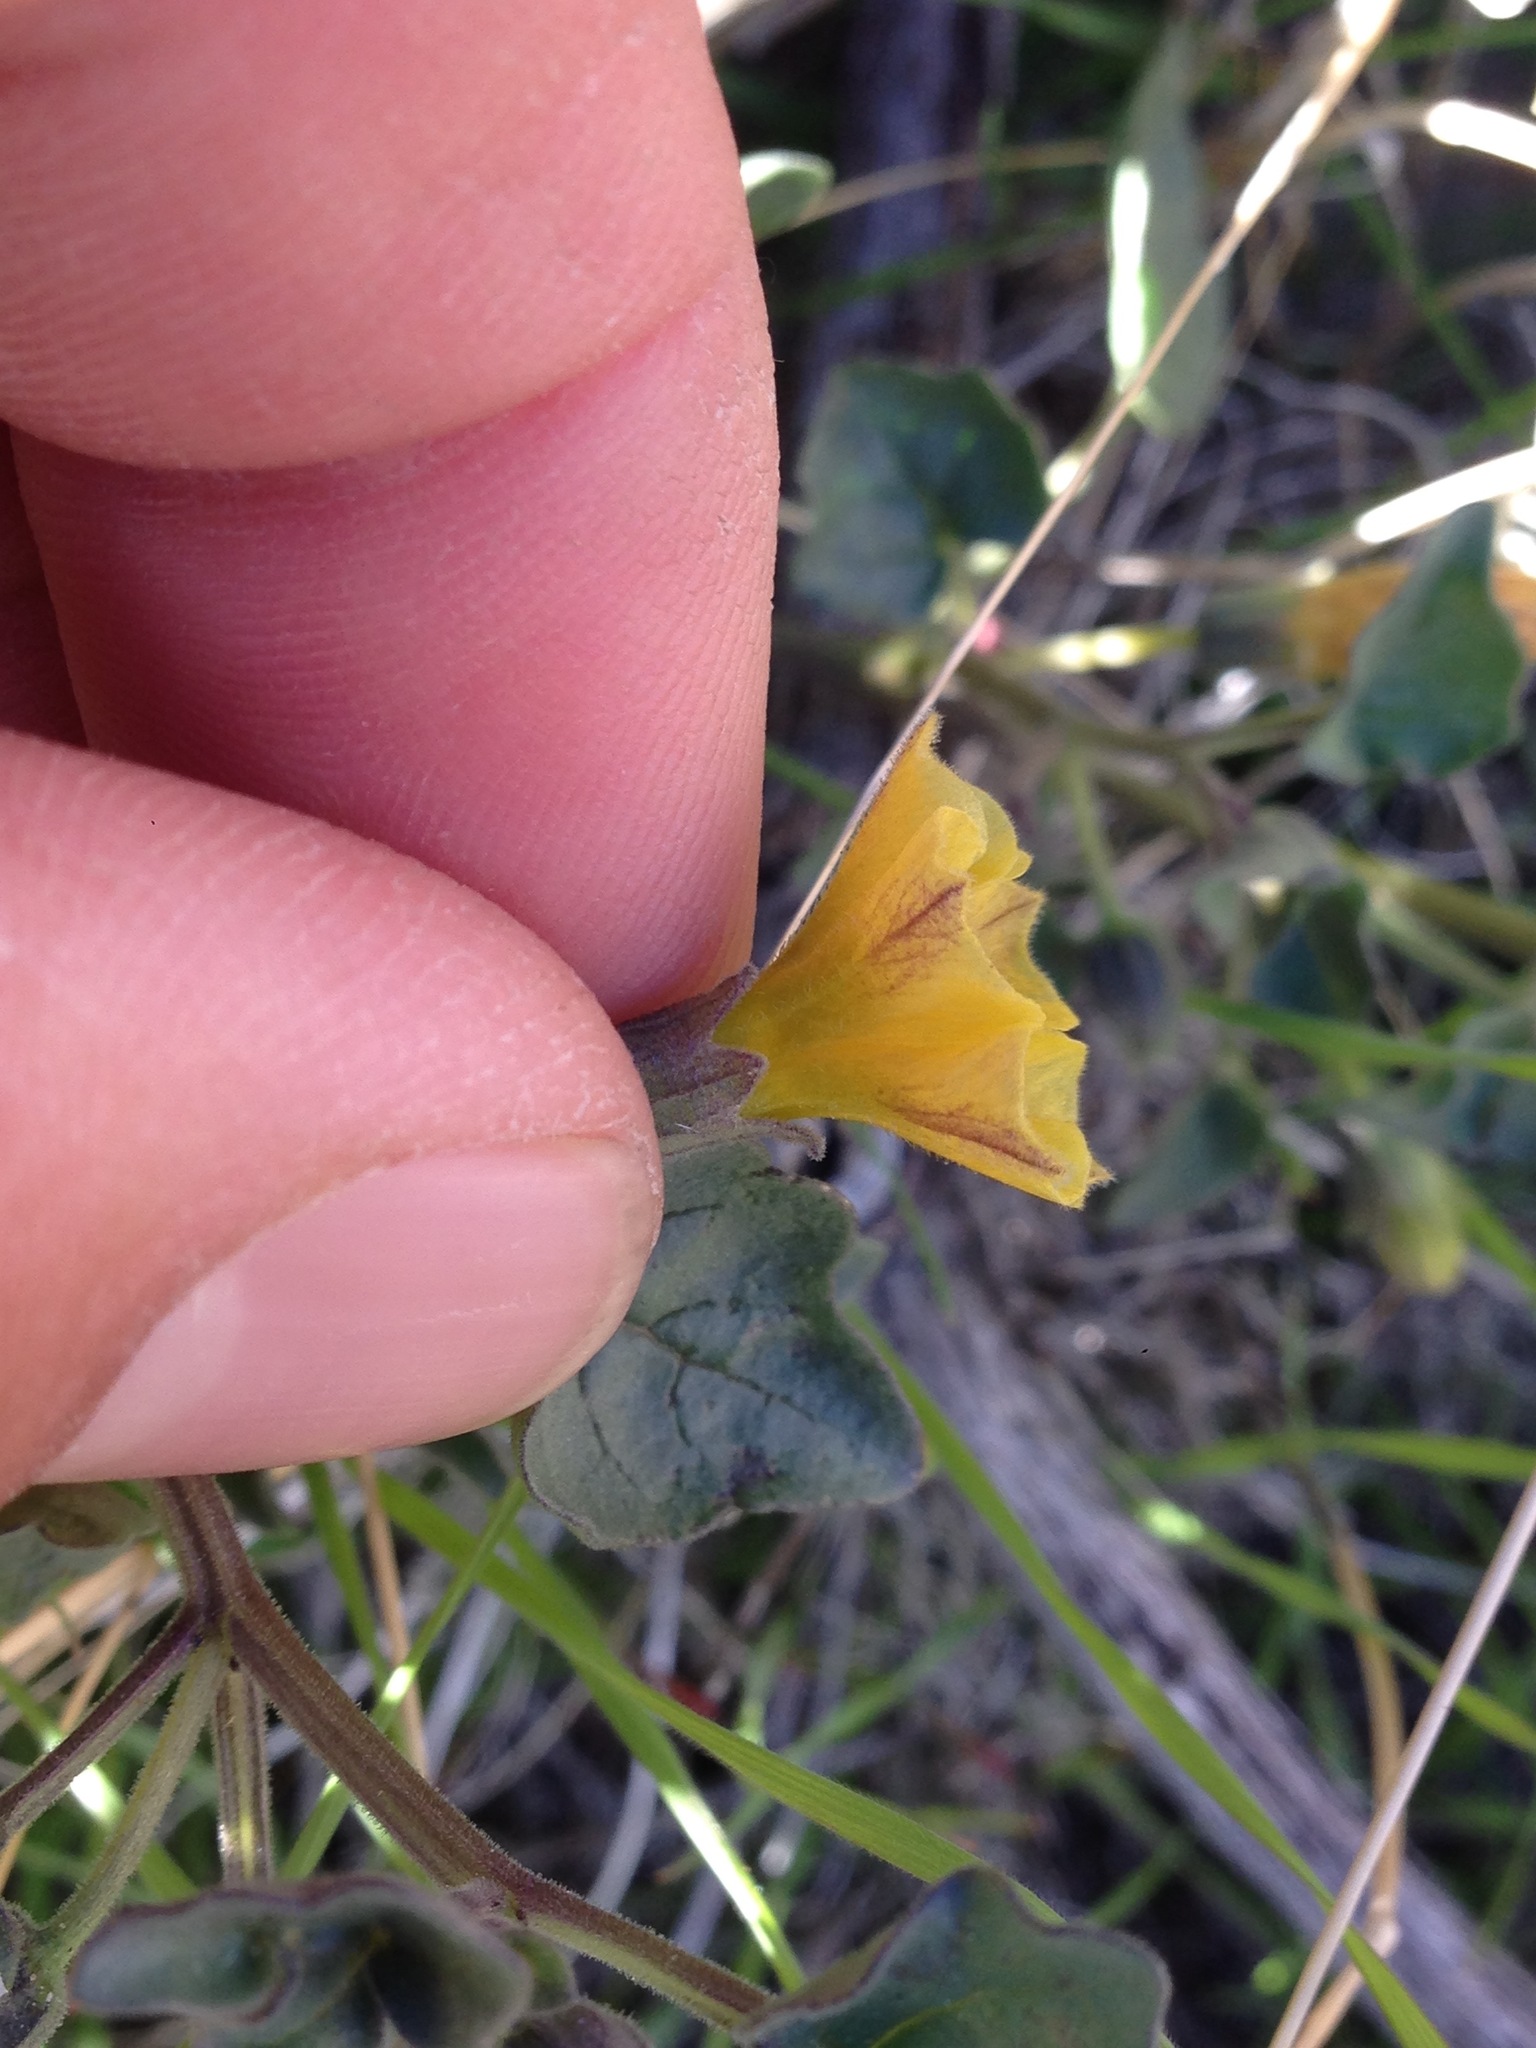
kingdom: Plantae
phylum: Tracheophyta
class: Magnoliopsida
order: Solanales
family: Solanaceae
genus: Physalis
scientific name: Physalis crassifolia
